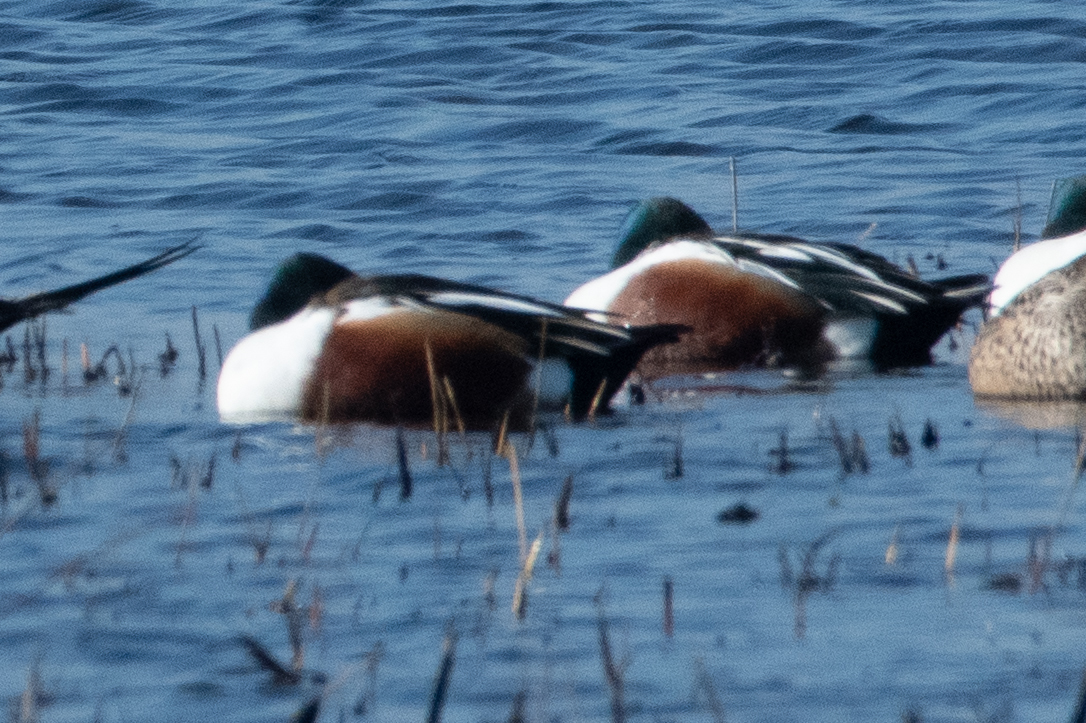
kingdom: Animalia
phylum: Chordata
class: Aves
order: Anseriformes
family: Anatidae
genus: Spatula
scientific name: Spatula clypeata
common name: Northern shoveler
